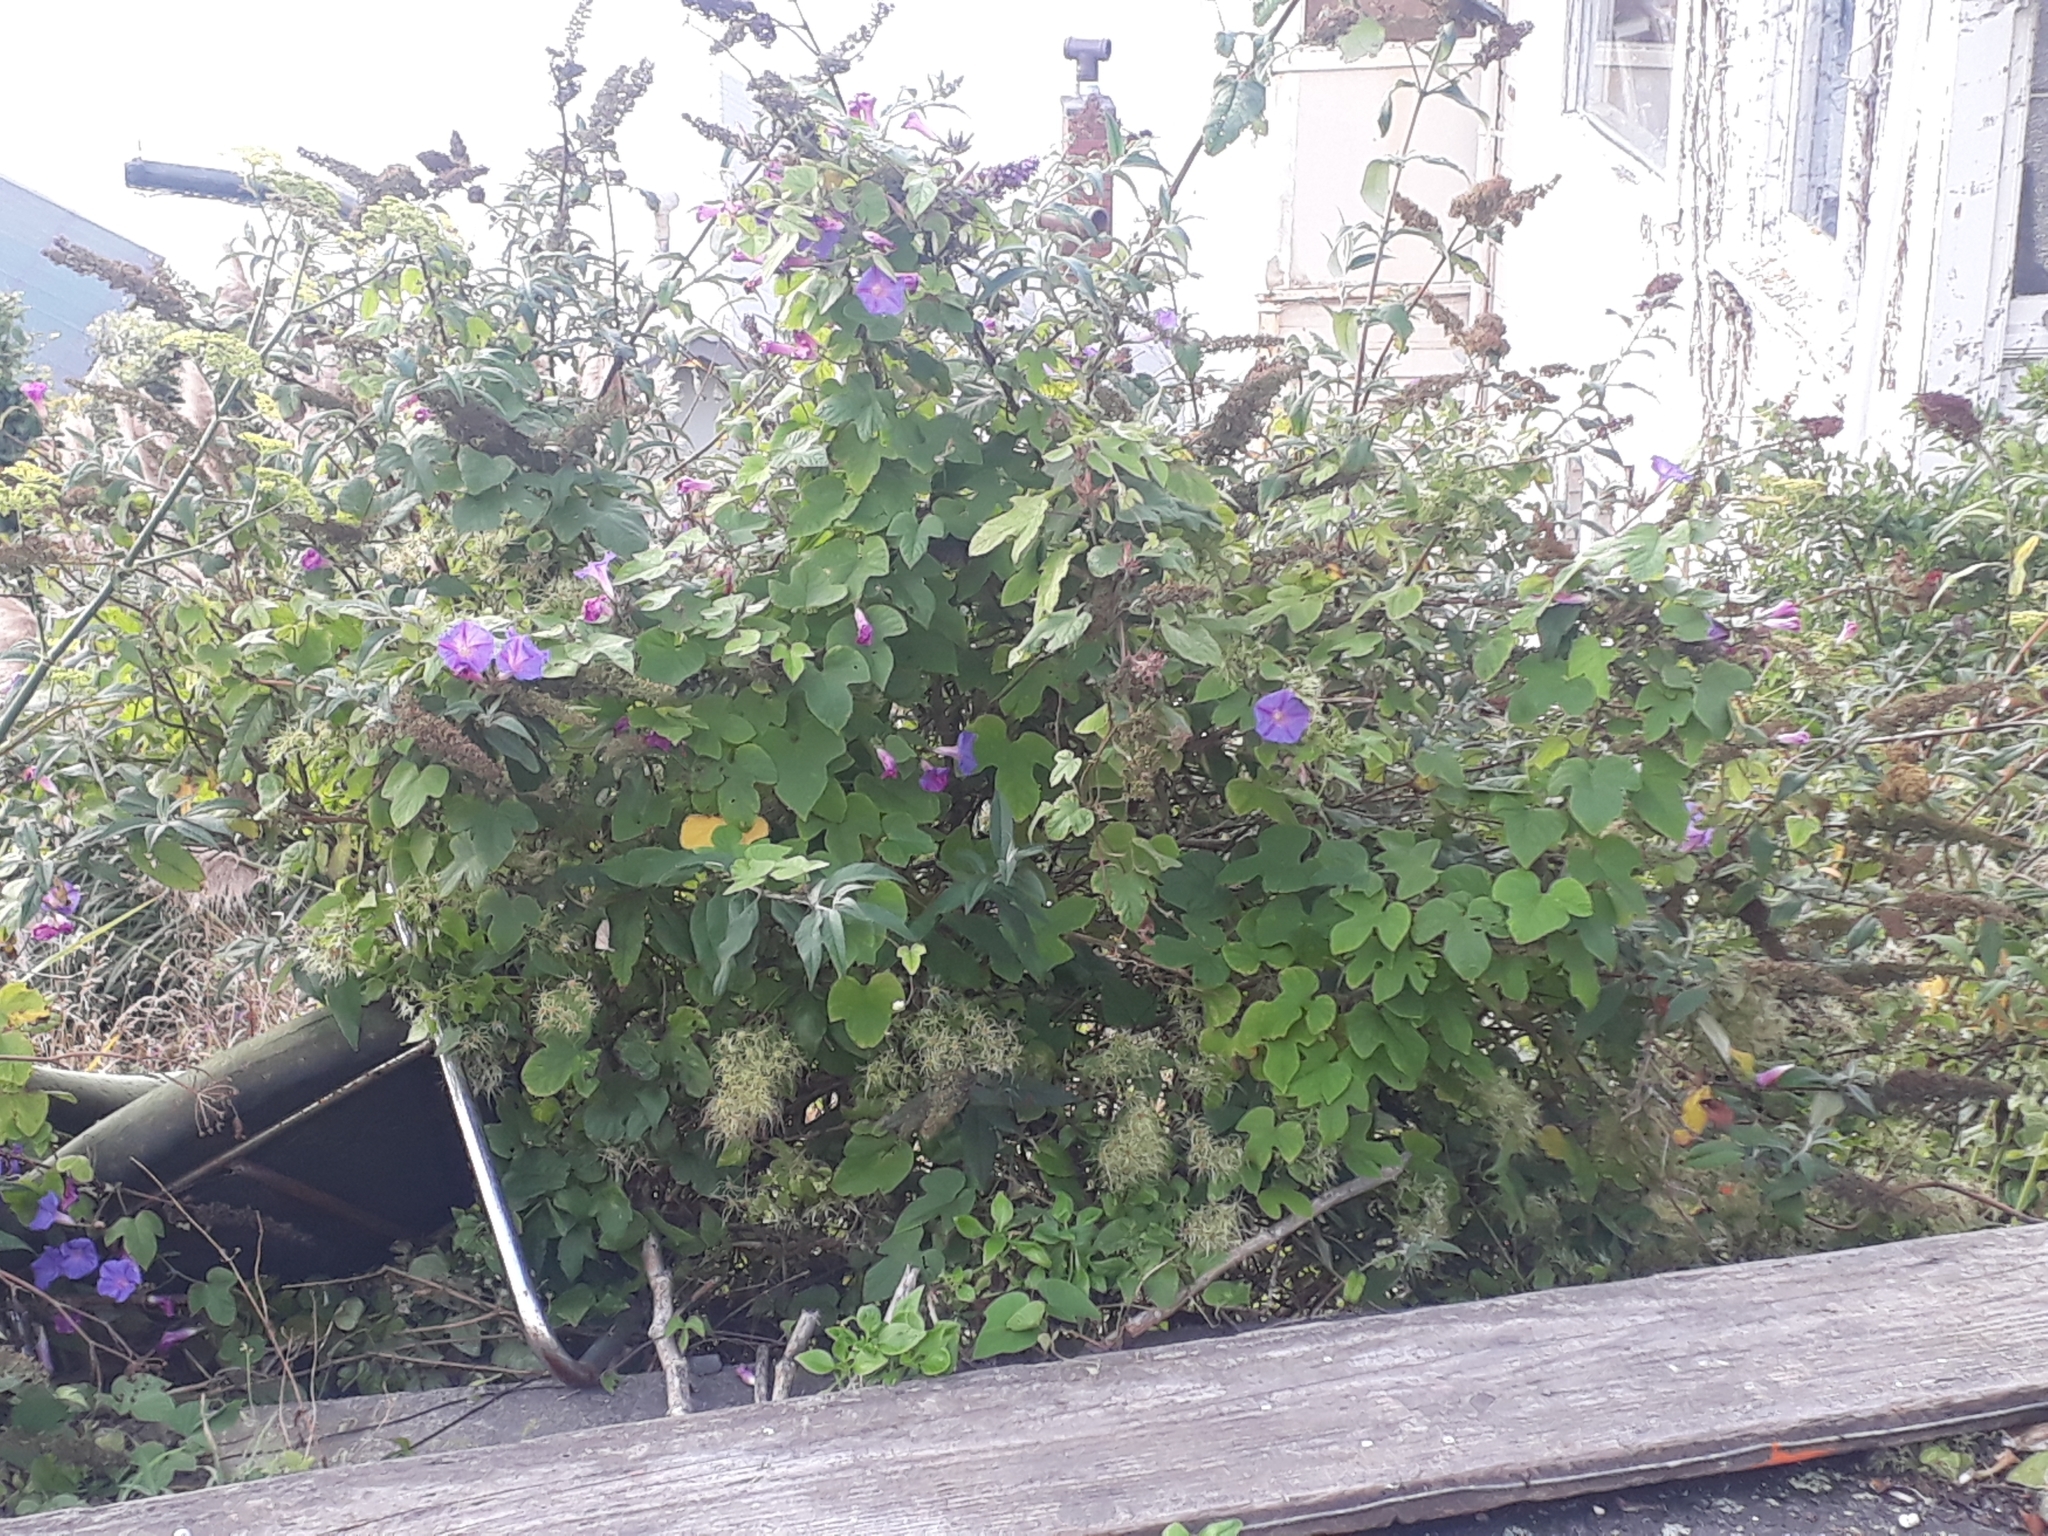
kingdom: Plantae
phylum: Tracheophyta
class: Magnoliopsida
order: Solanales
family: Convolvulaceae
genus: Ipomoea
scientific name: Ipomoea indica
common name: Blue dawnflower
